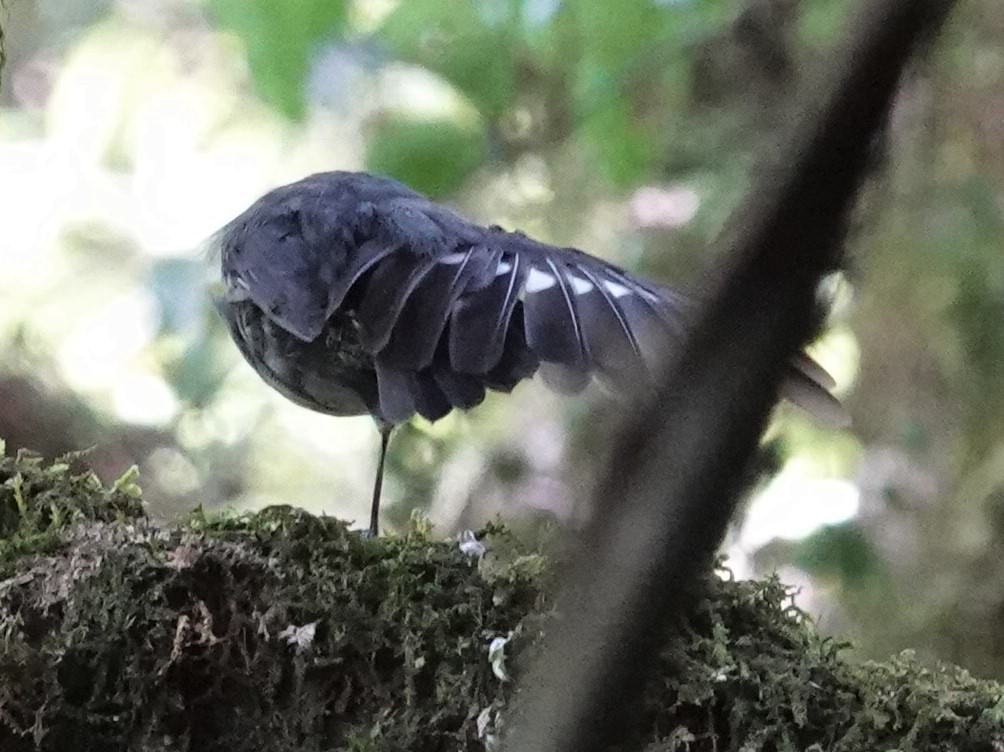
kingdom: Animalia
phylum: Chordata
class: Aves
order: Passeriformes
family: Petroicidae
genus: Petroica
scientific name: Petroica australis
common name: New zealand robin
